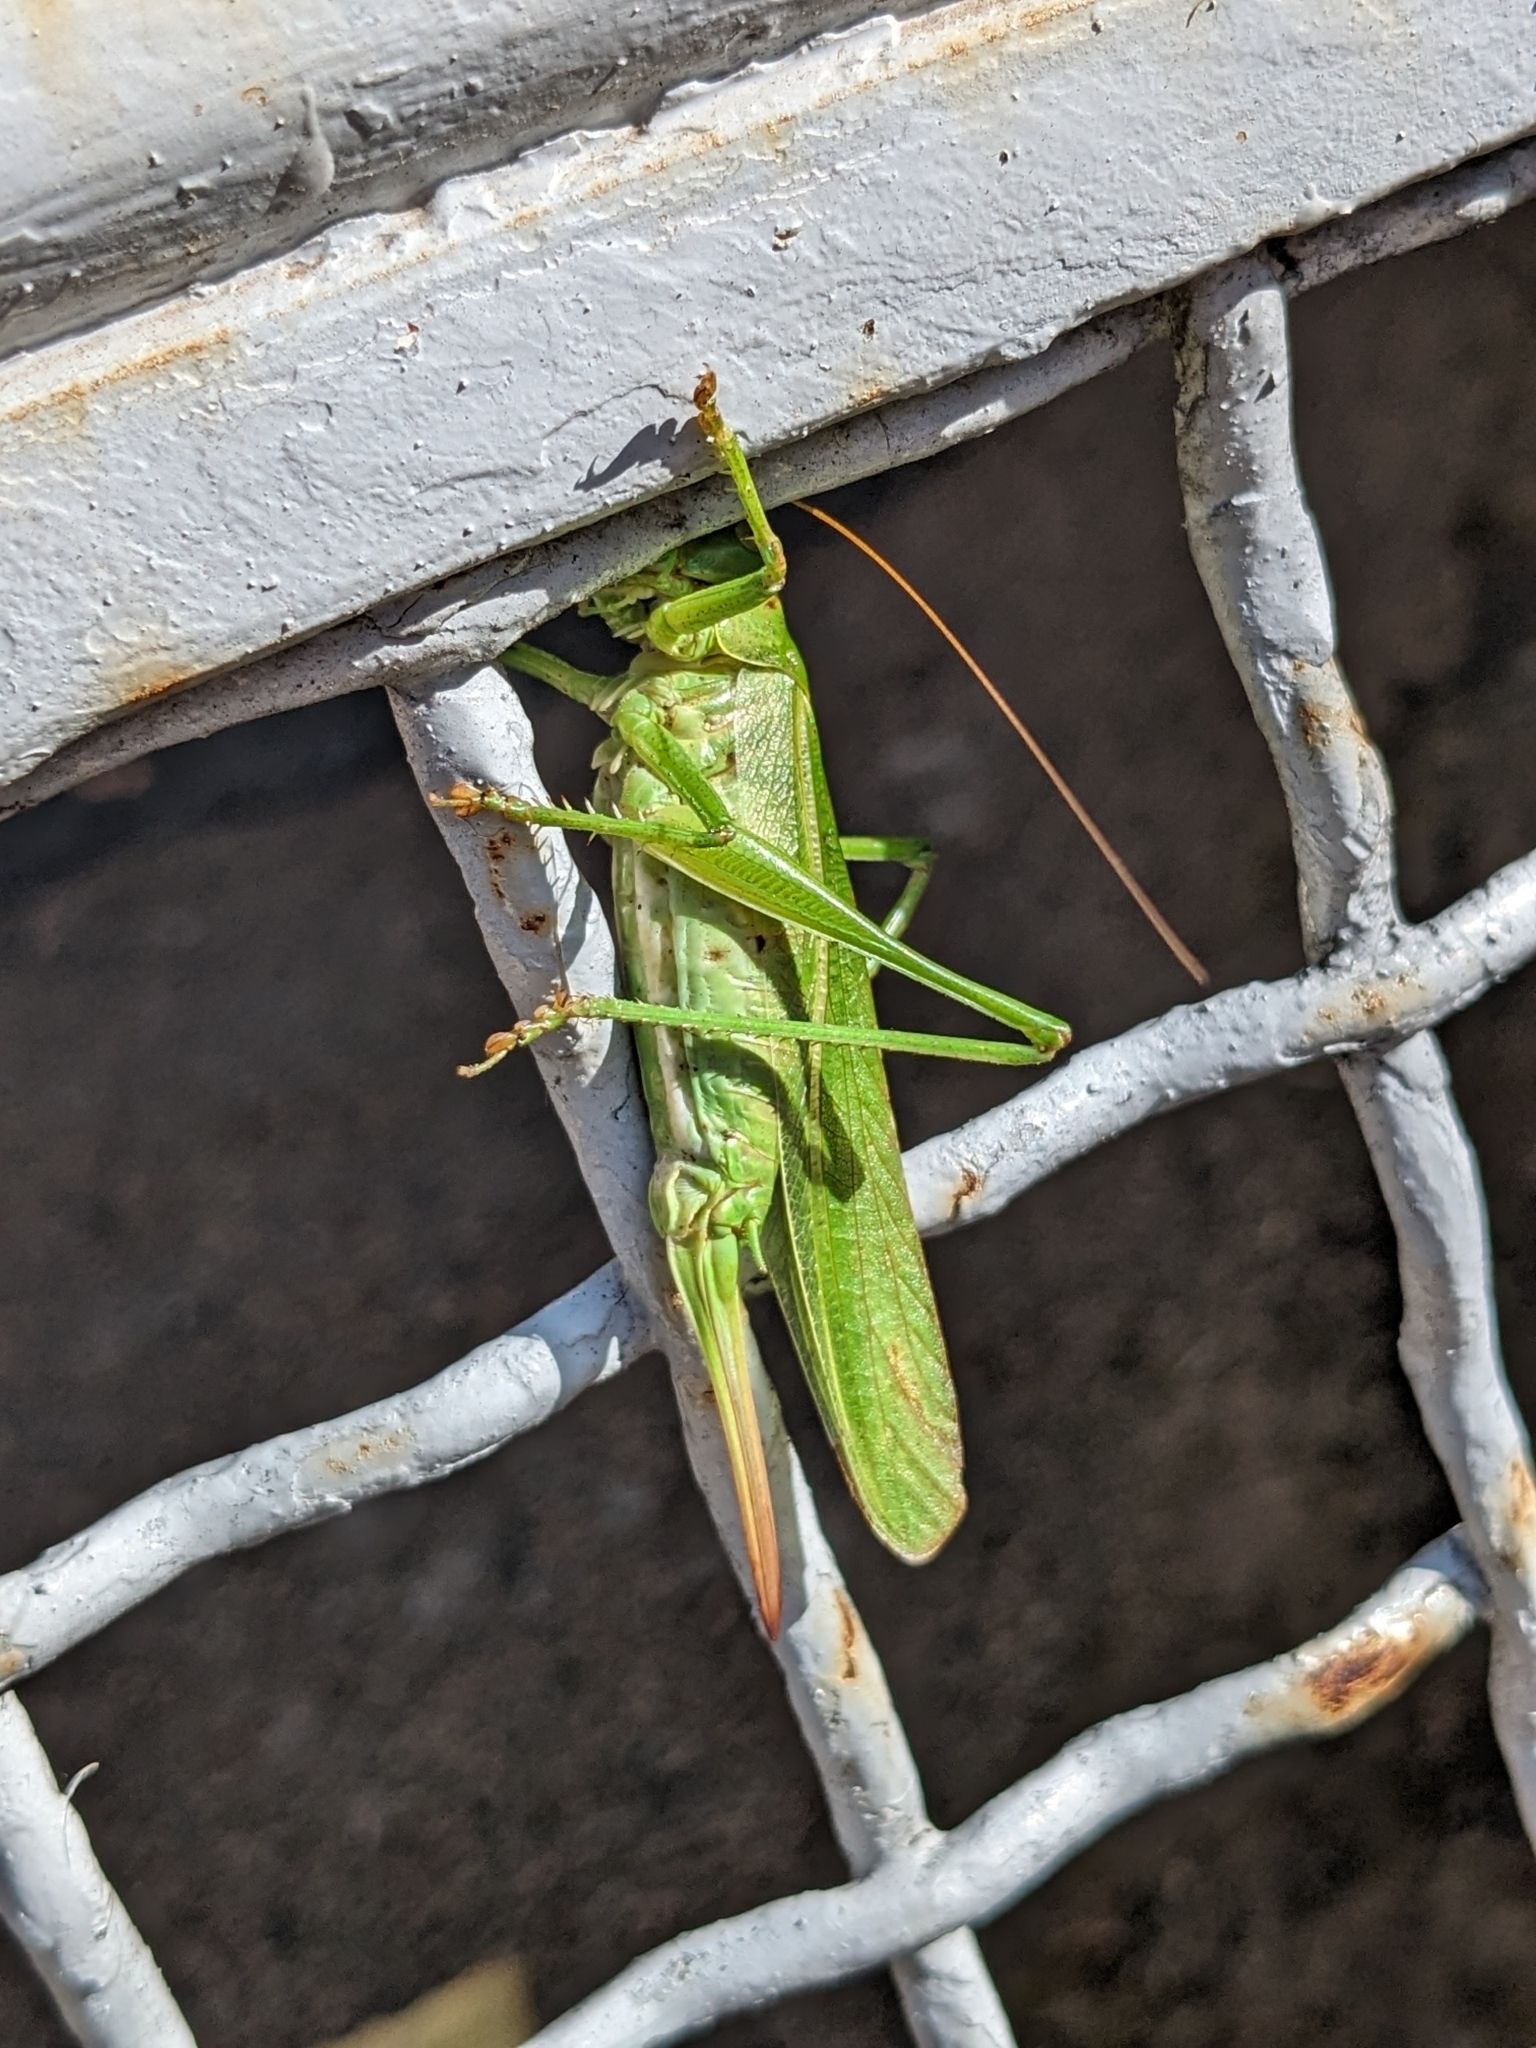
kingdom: Animalia
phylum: Arthropoda
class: Insecta
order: Orthoptera
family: Tettigoniidae
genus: Tettigonia
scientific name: Tettigonia viridissima
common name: Great green bush-cricket
